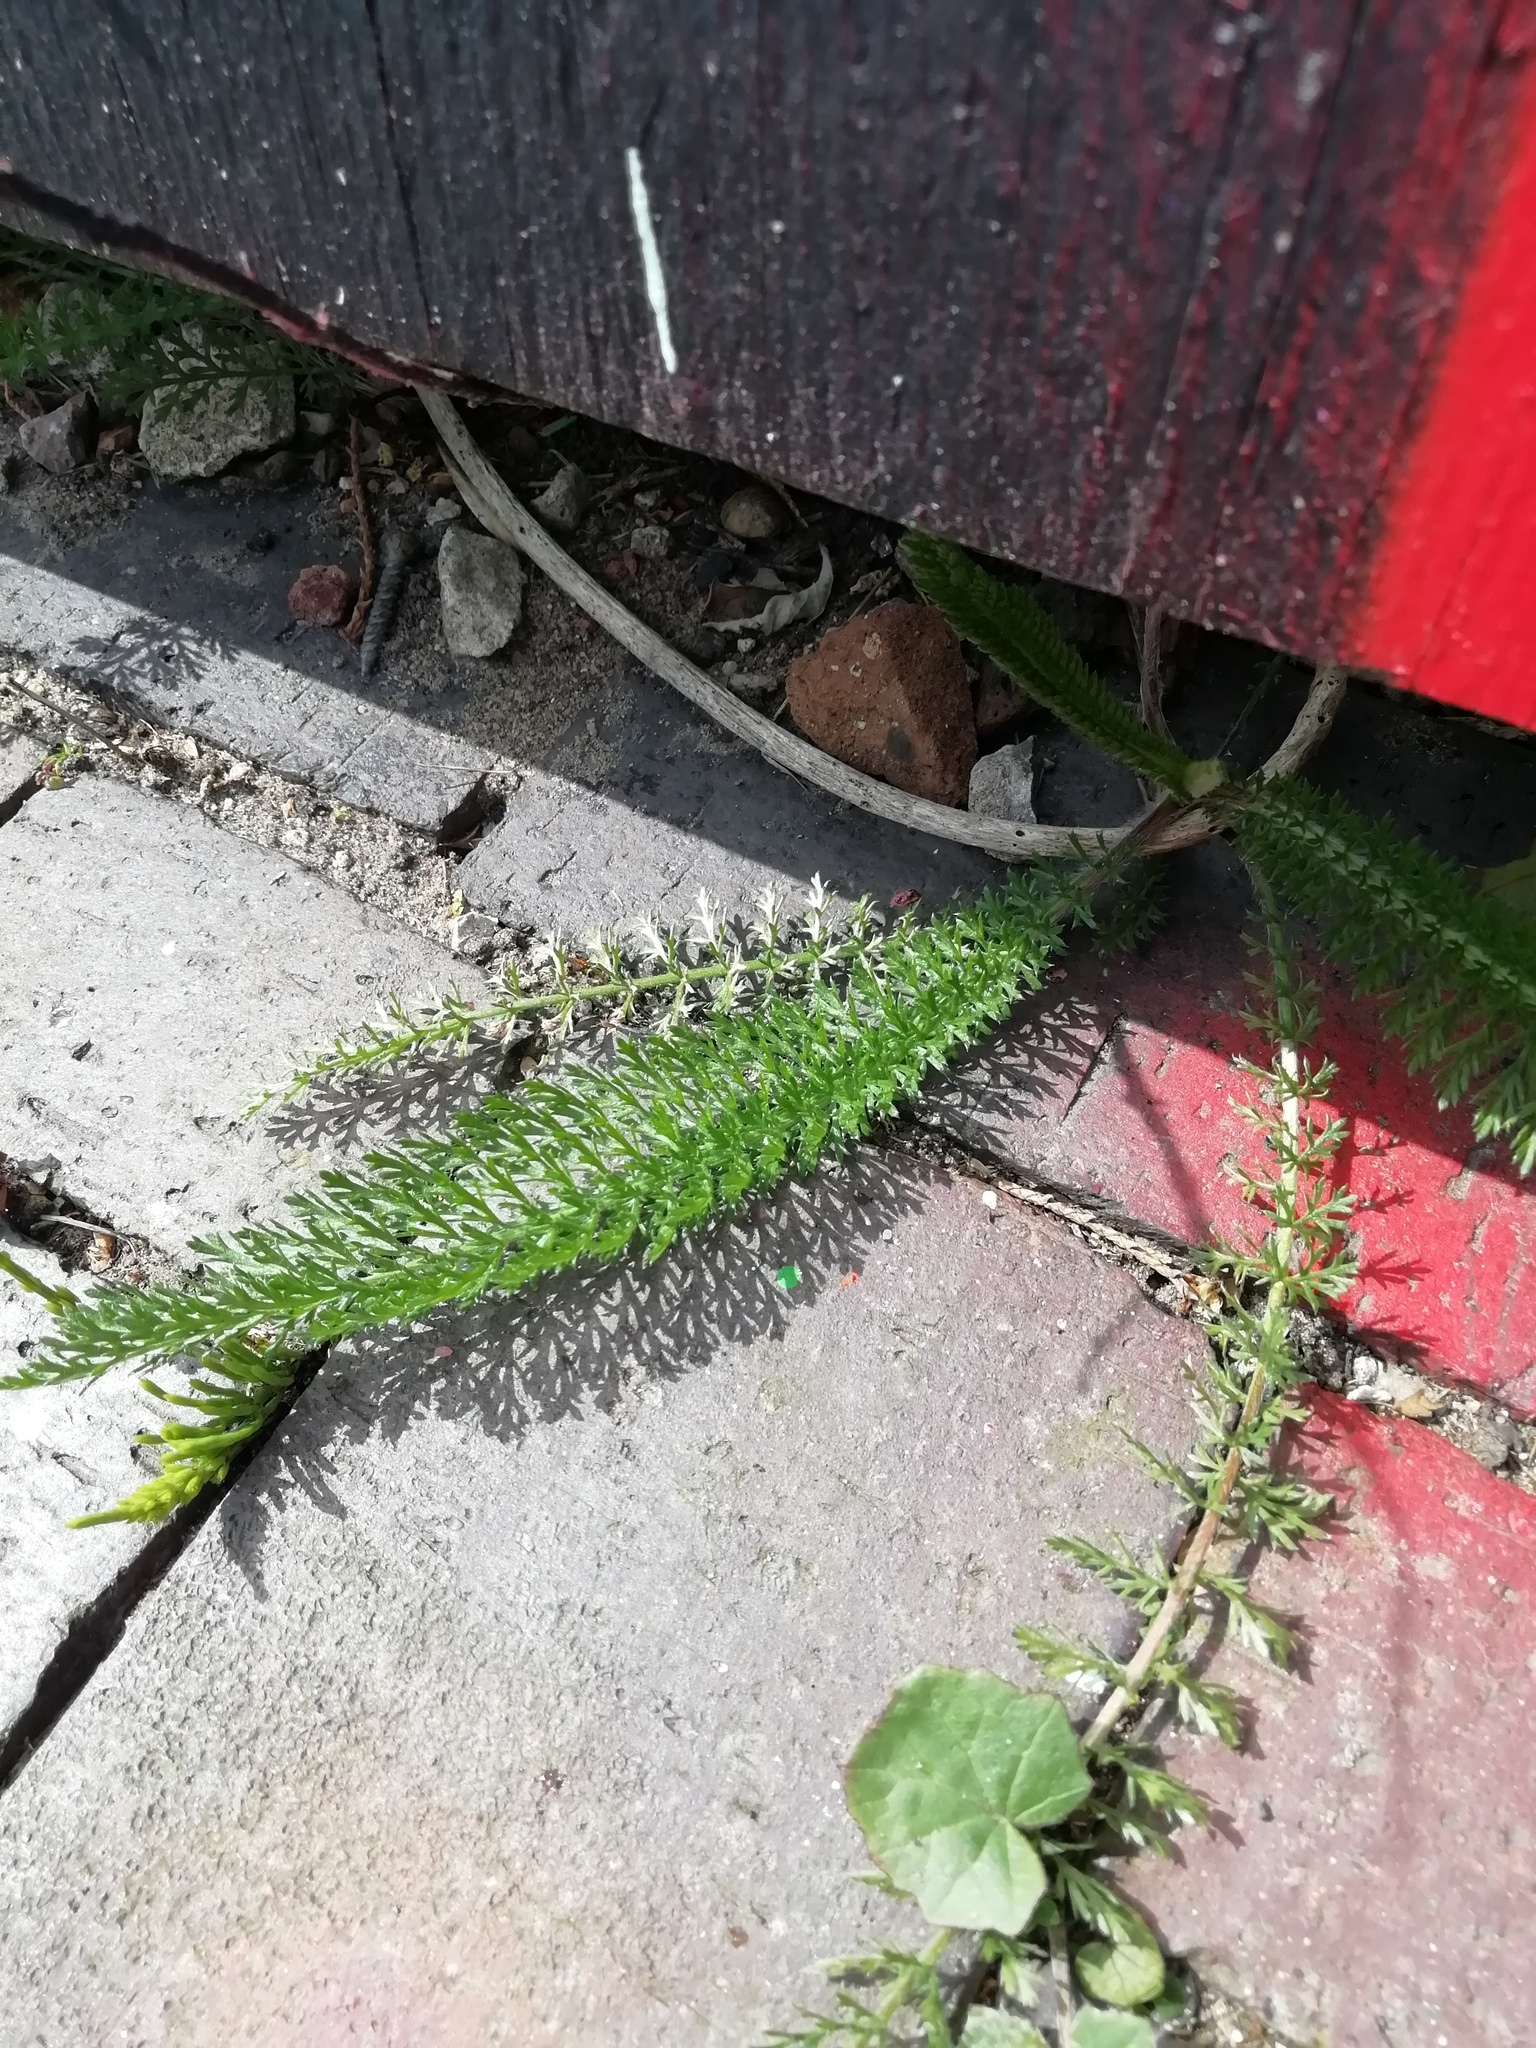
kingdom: Plantae
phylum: Tracheophyta
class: Magnoliopsida
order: Asterales
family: Asteraceae
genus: Achillea
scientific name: Achillea millefolium
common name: Yarrow
